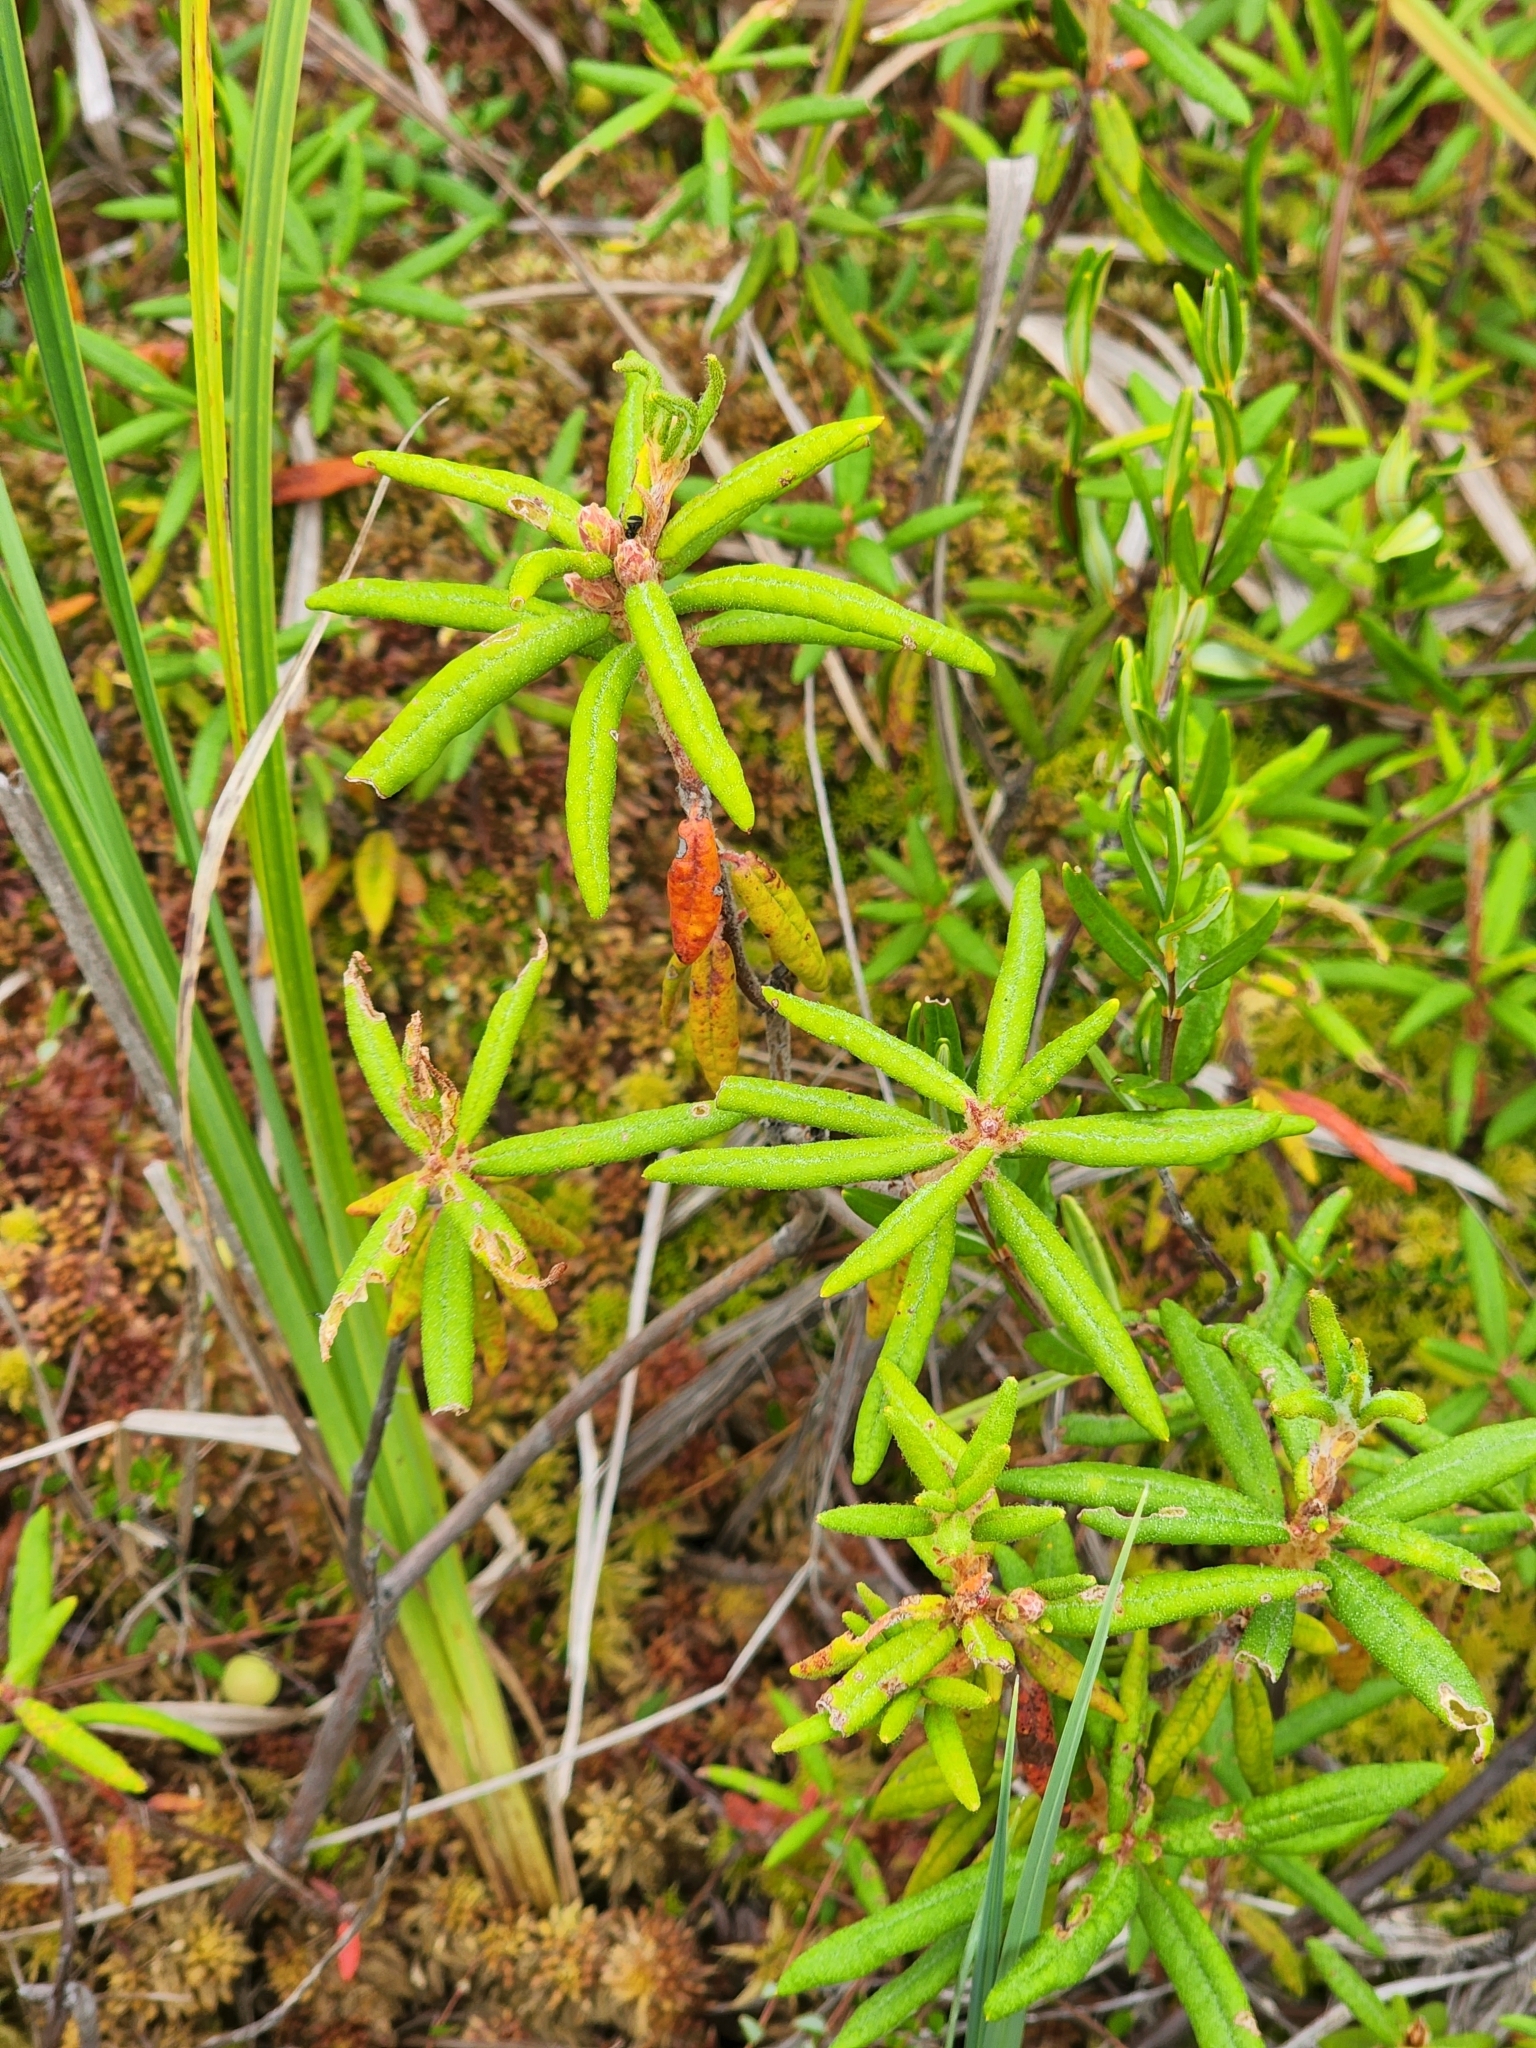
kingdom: Plantae
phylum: Tracheophyta
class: Magnoliopsida
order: Ericales
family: Ericaceae
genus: Rhododendron
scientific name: Rhododendron groenlandicum
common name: Bog labrador tea
